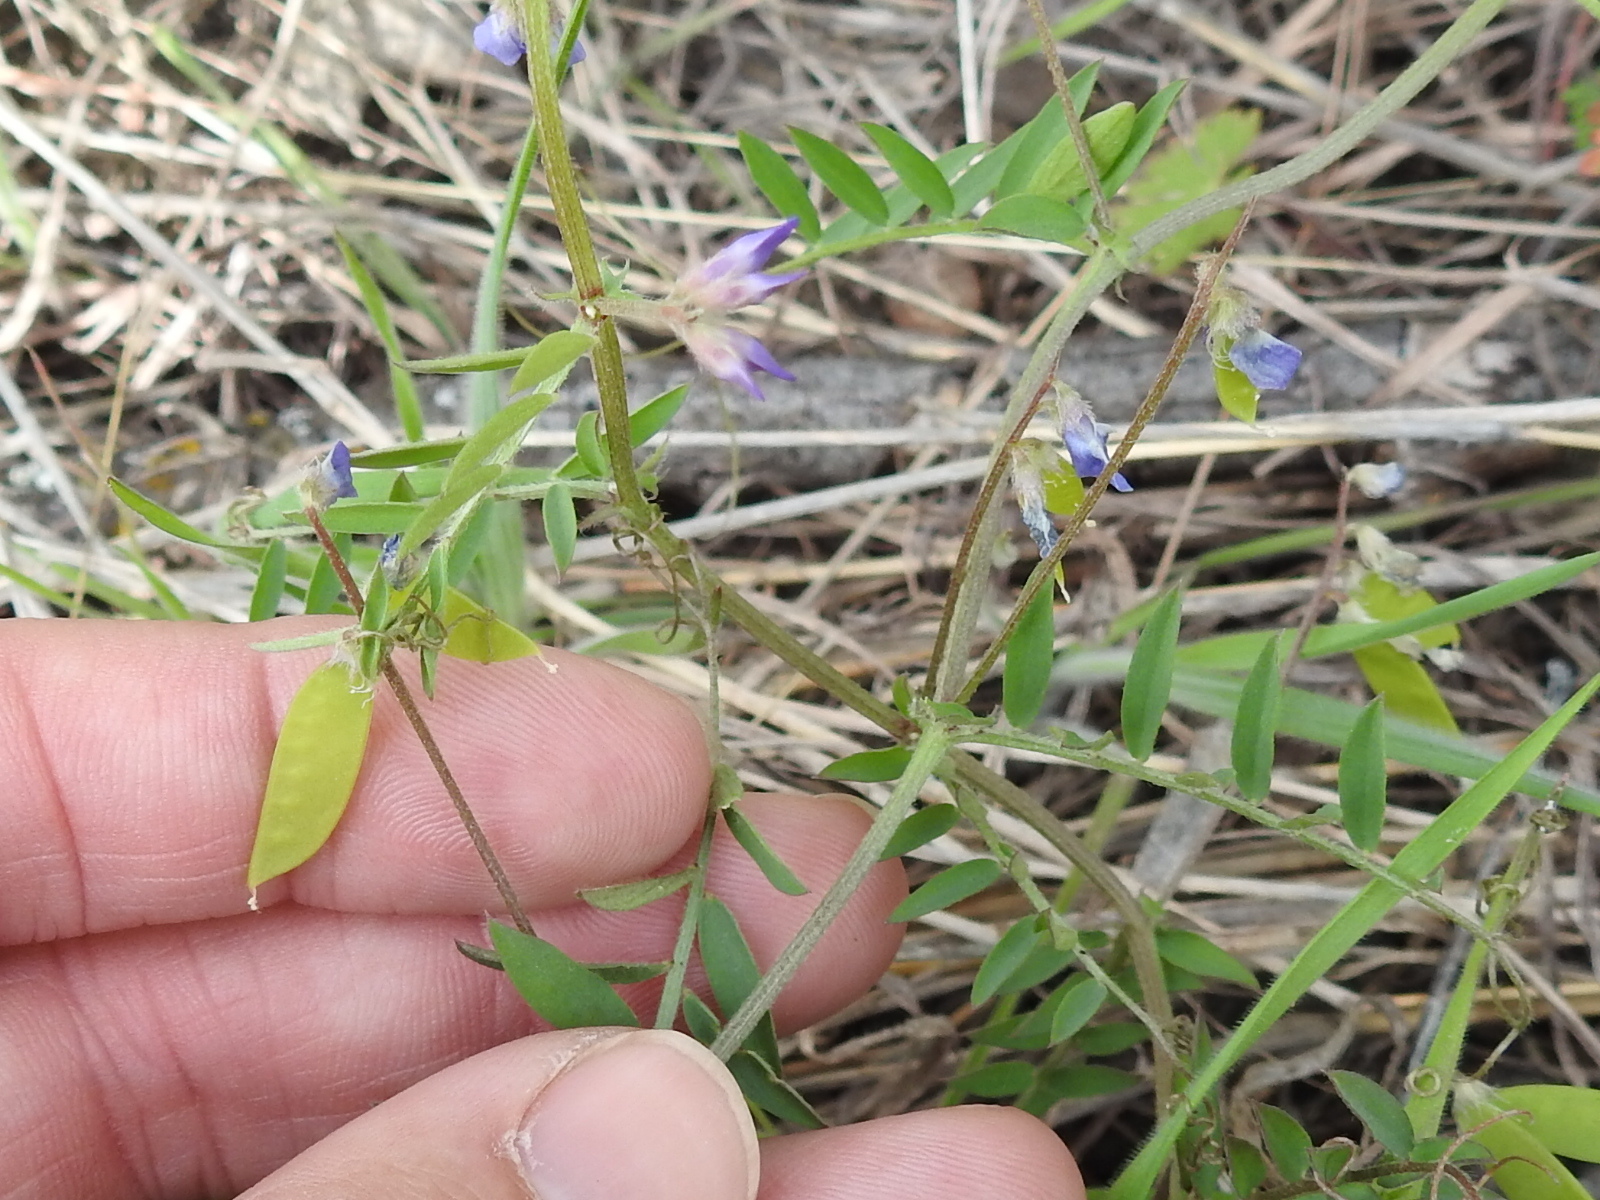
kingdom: Plantae
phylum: Tracheophyta
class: Magnoliopsida
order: Fabales
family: Fabaceae
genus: Vicia
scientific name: Vicia ludoviciana
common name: Louisiana vetch
